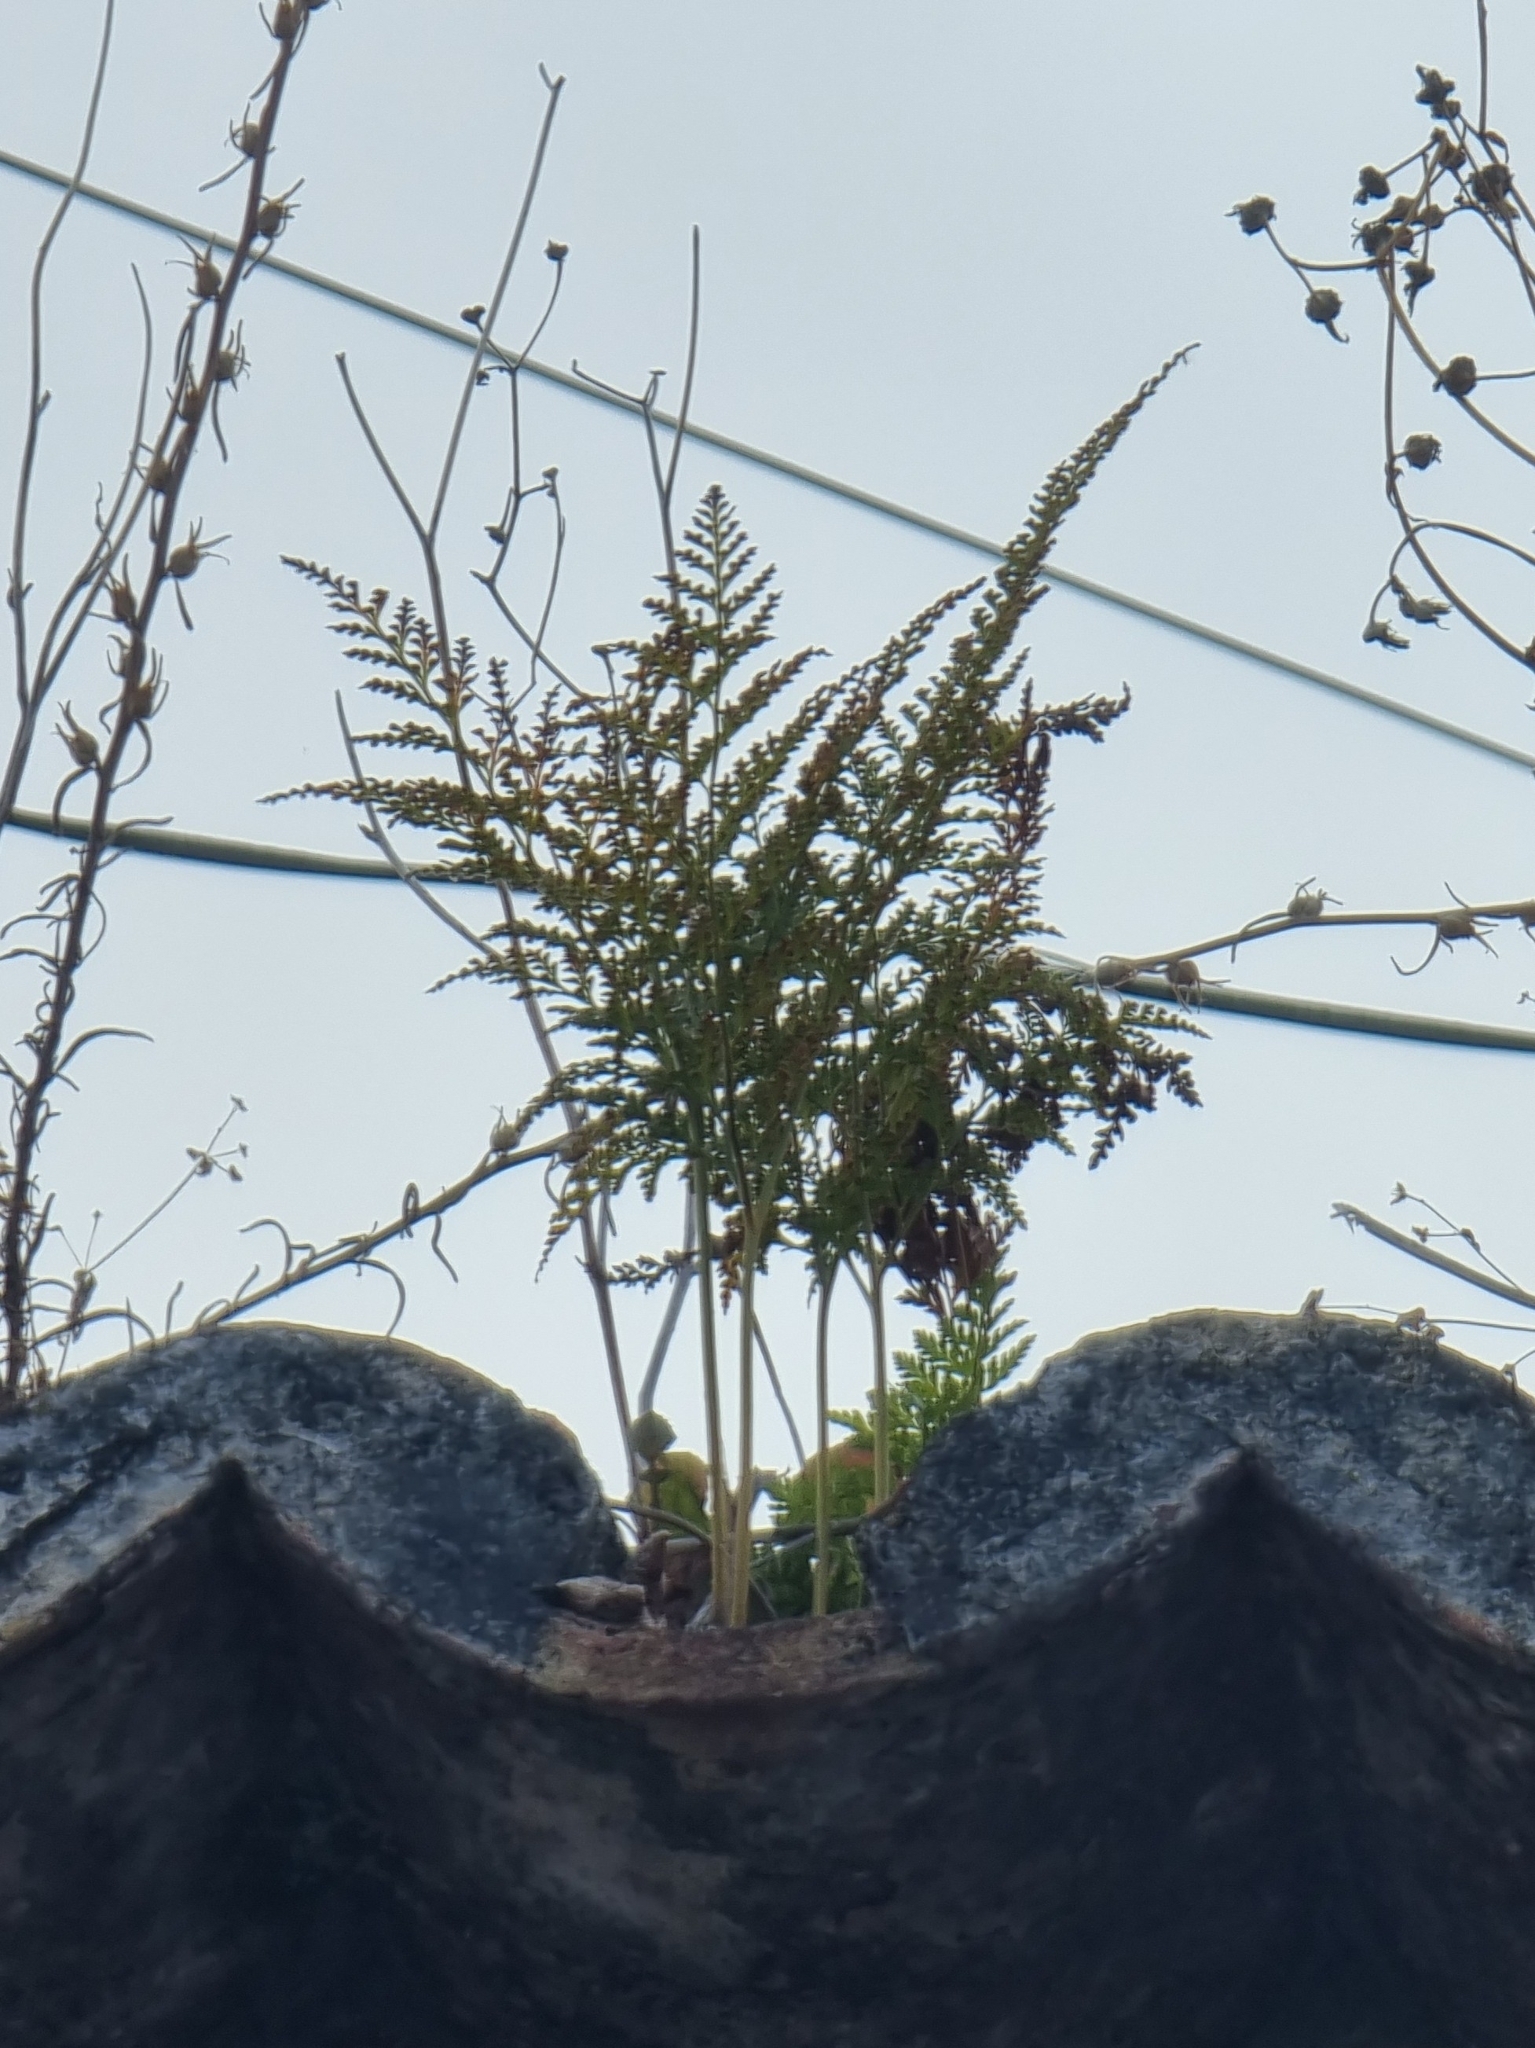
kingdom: Plantae
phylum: Tracheophyta
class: Polypodiopsida
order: Polypodiales
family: Davalliaceae
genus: Davallia
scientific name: Davallia canariensis
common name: Hare's-foot fern
